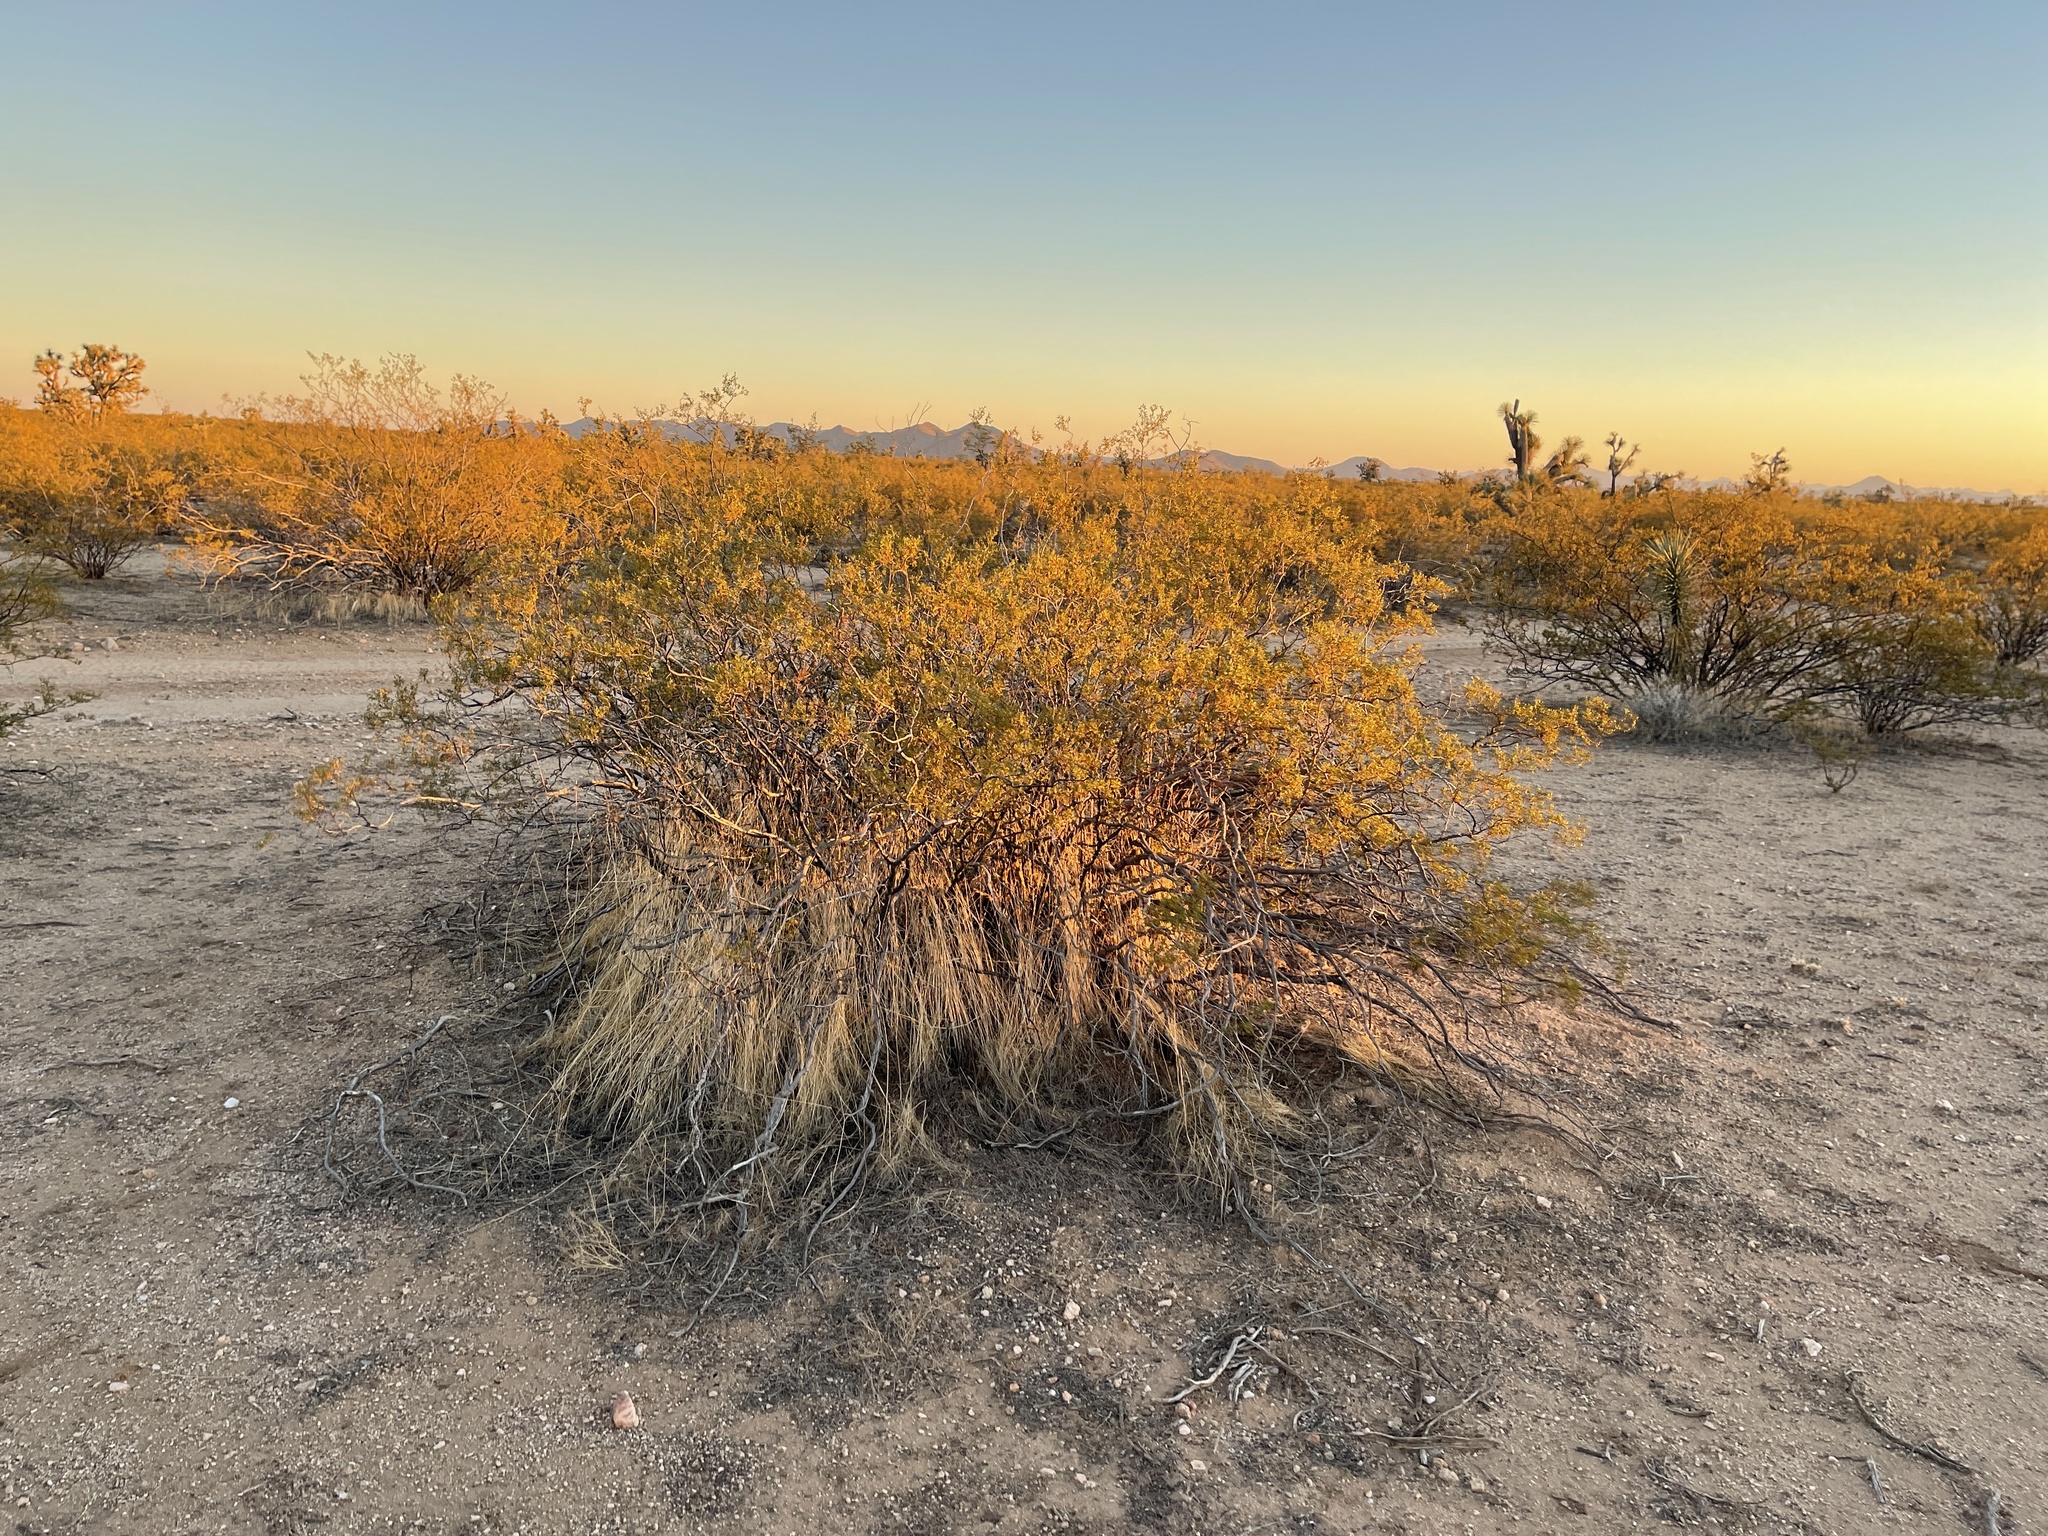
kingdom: Plantae
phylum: Tracheophyta
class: Magnoliopsida
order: Zygophyllales
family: Zygophyllaceae
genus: Larrea
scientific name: Larrea tridentata
